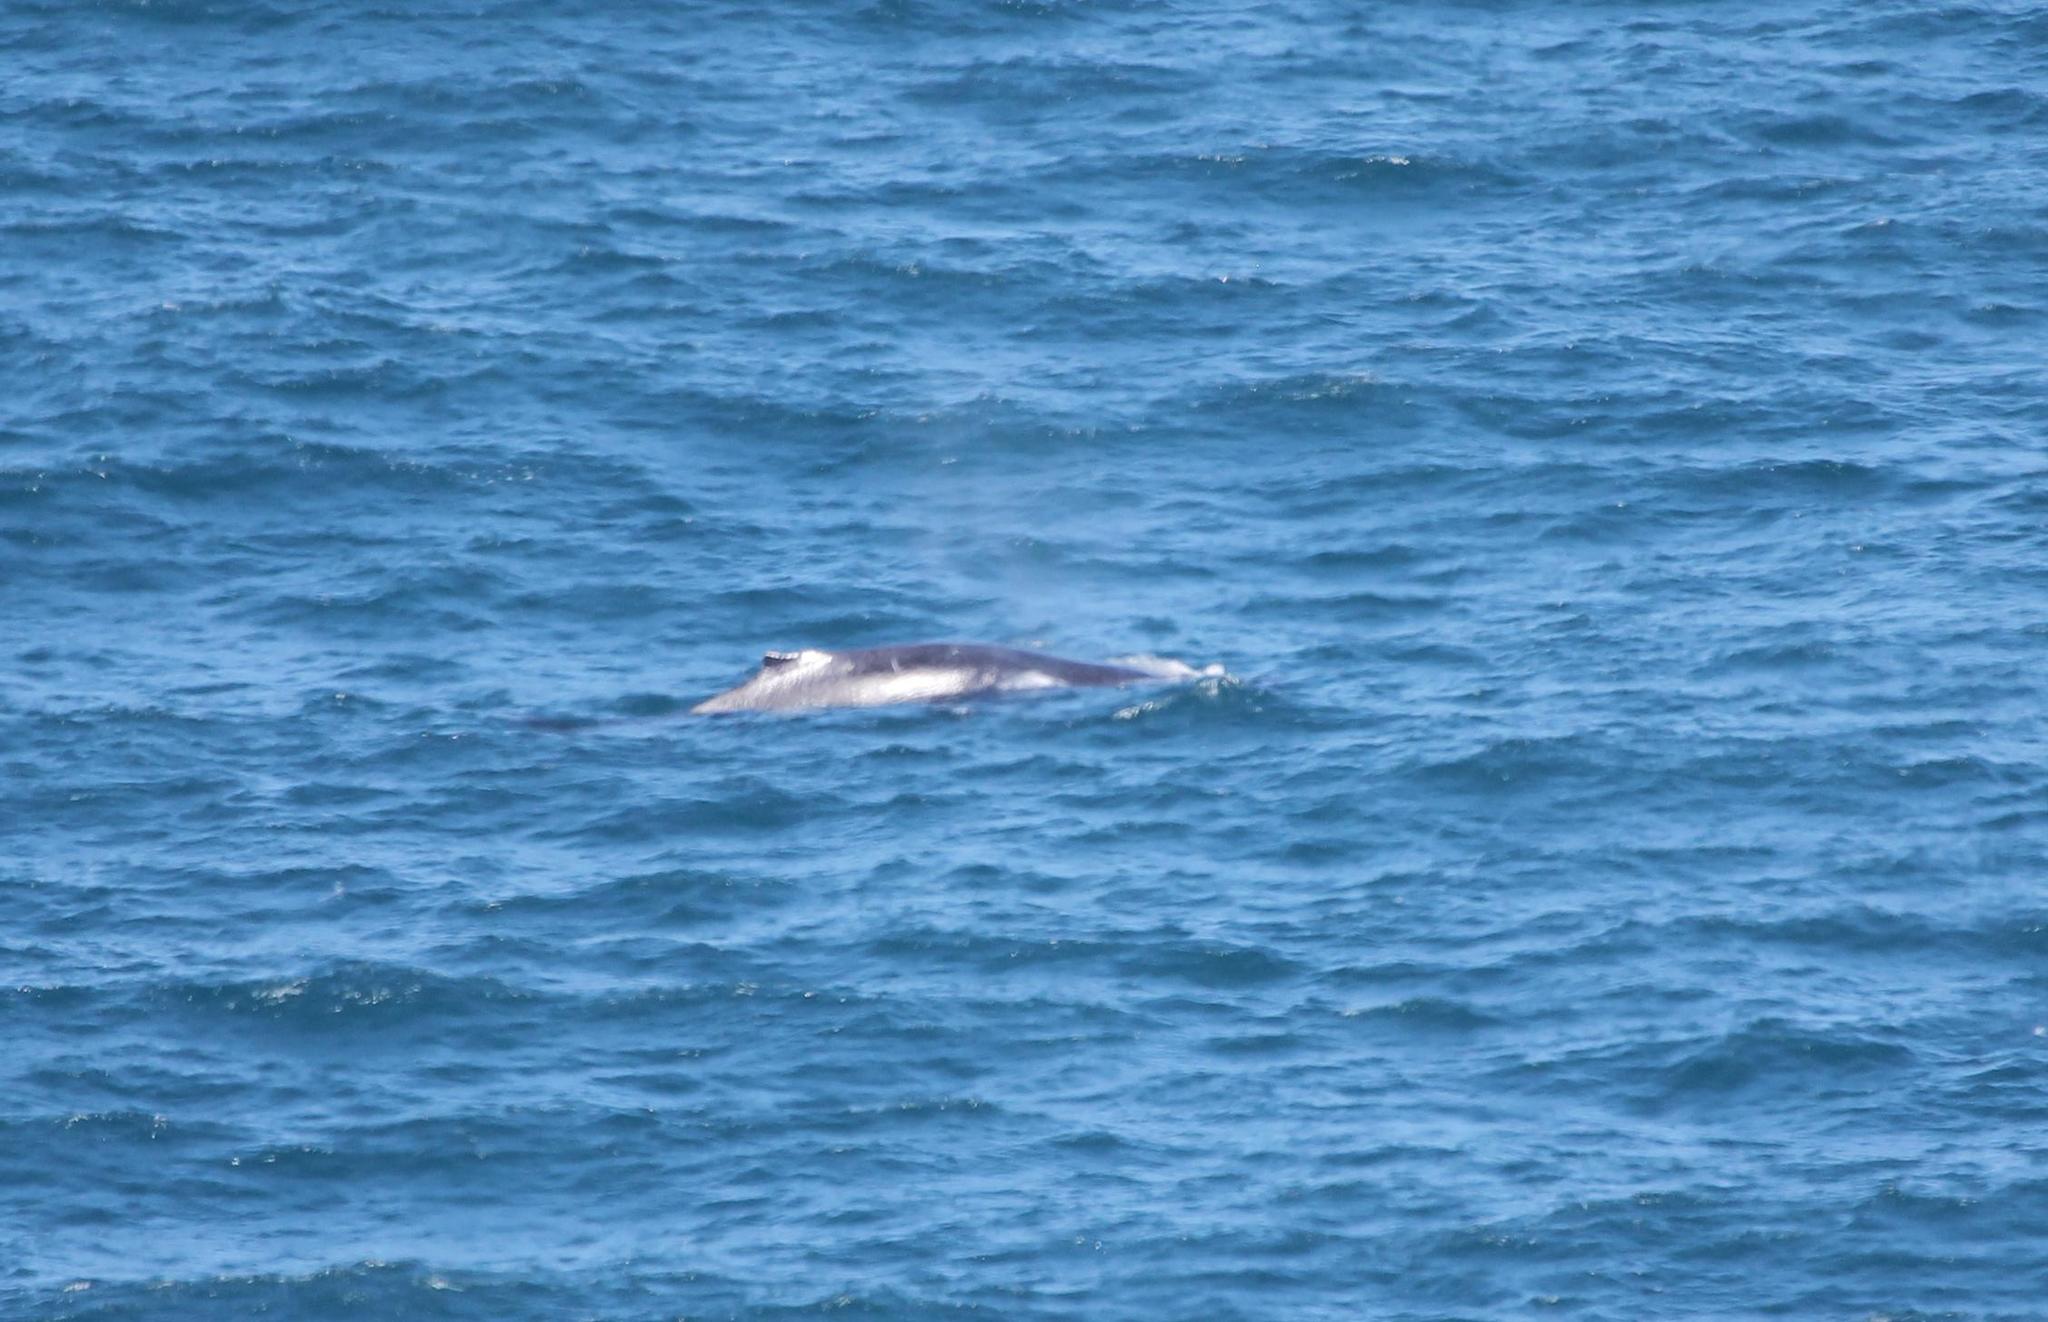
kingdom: Animalia
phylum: Chordata
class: Mammalia
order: Cetacea
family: Balaenopteridae
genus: Megaptera
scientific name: Megaptera novaeangliae
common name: Humpback whale
